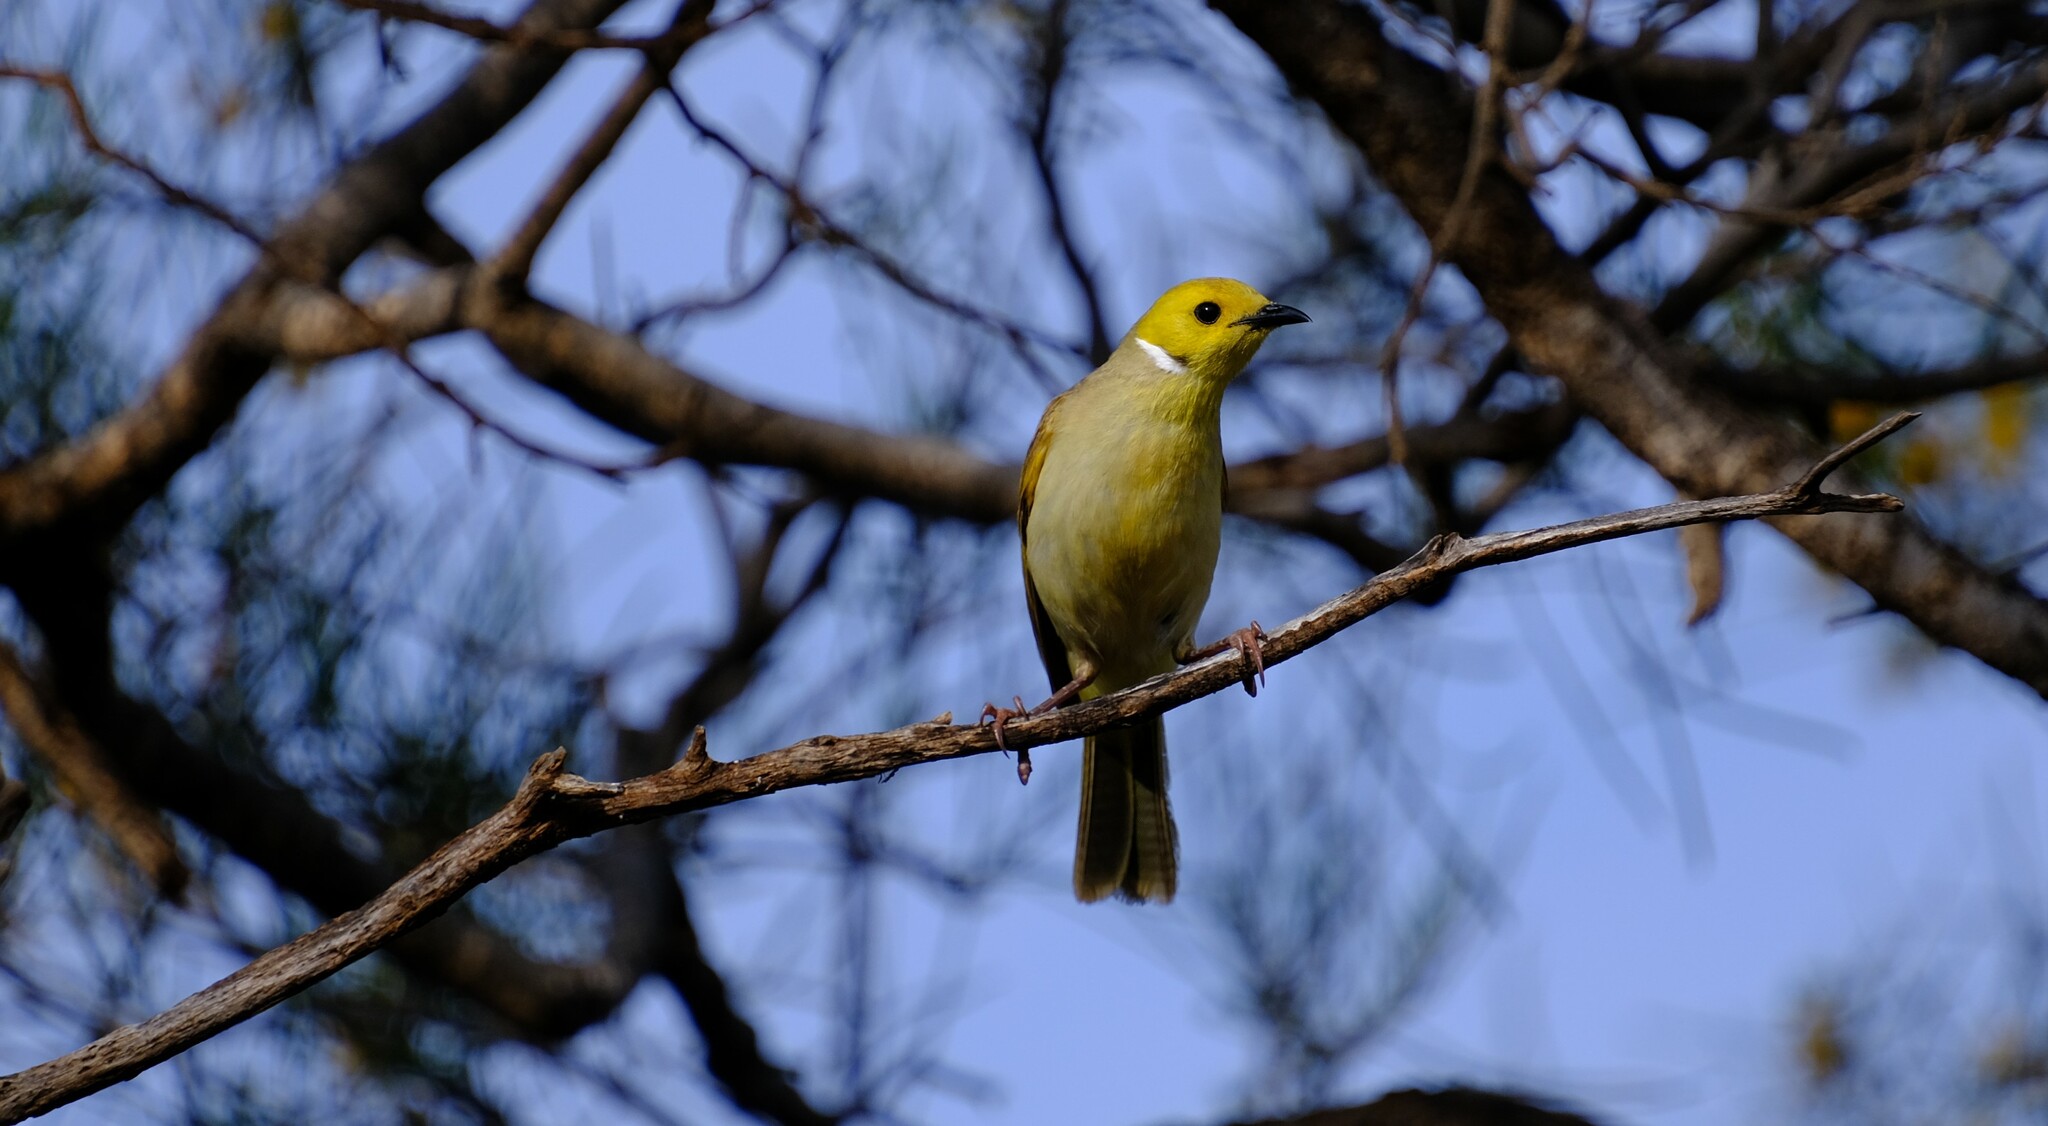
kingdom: Animalia
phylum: Chordata
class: Aves
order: Passeriformes
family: Meliphagidae
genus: Ptilotula
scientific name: Ptilotula penicillata
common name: White-plumed honeyeater
